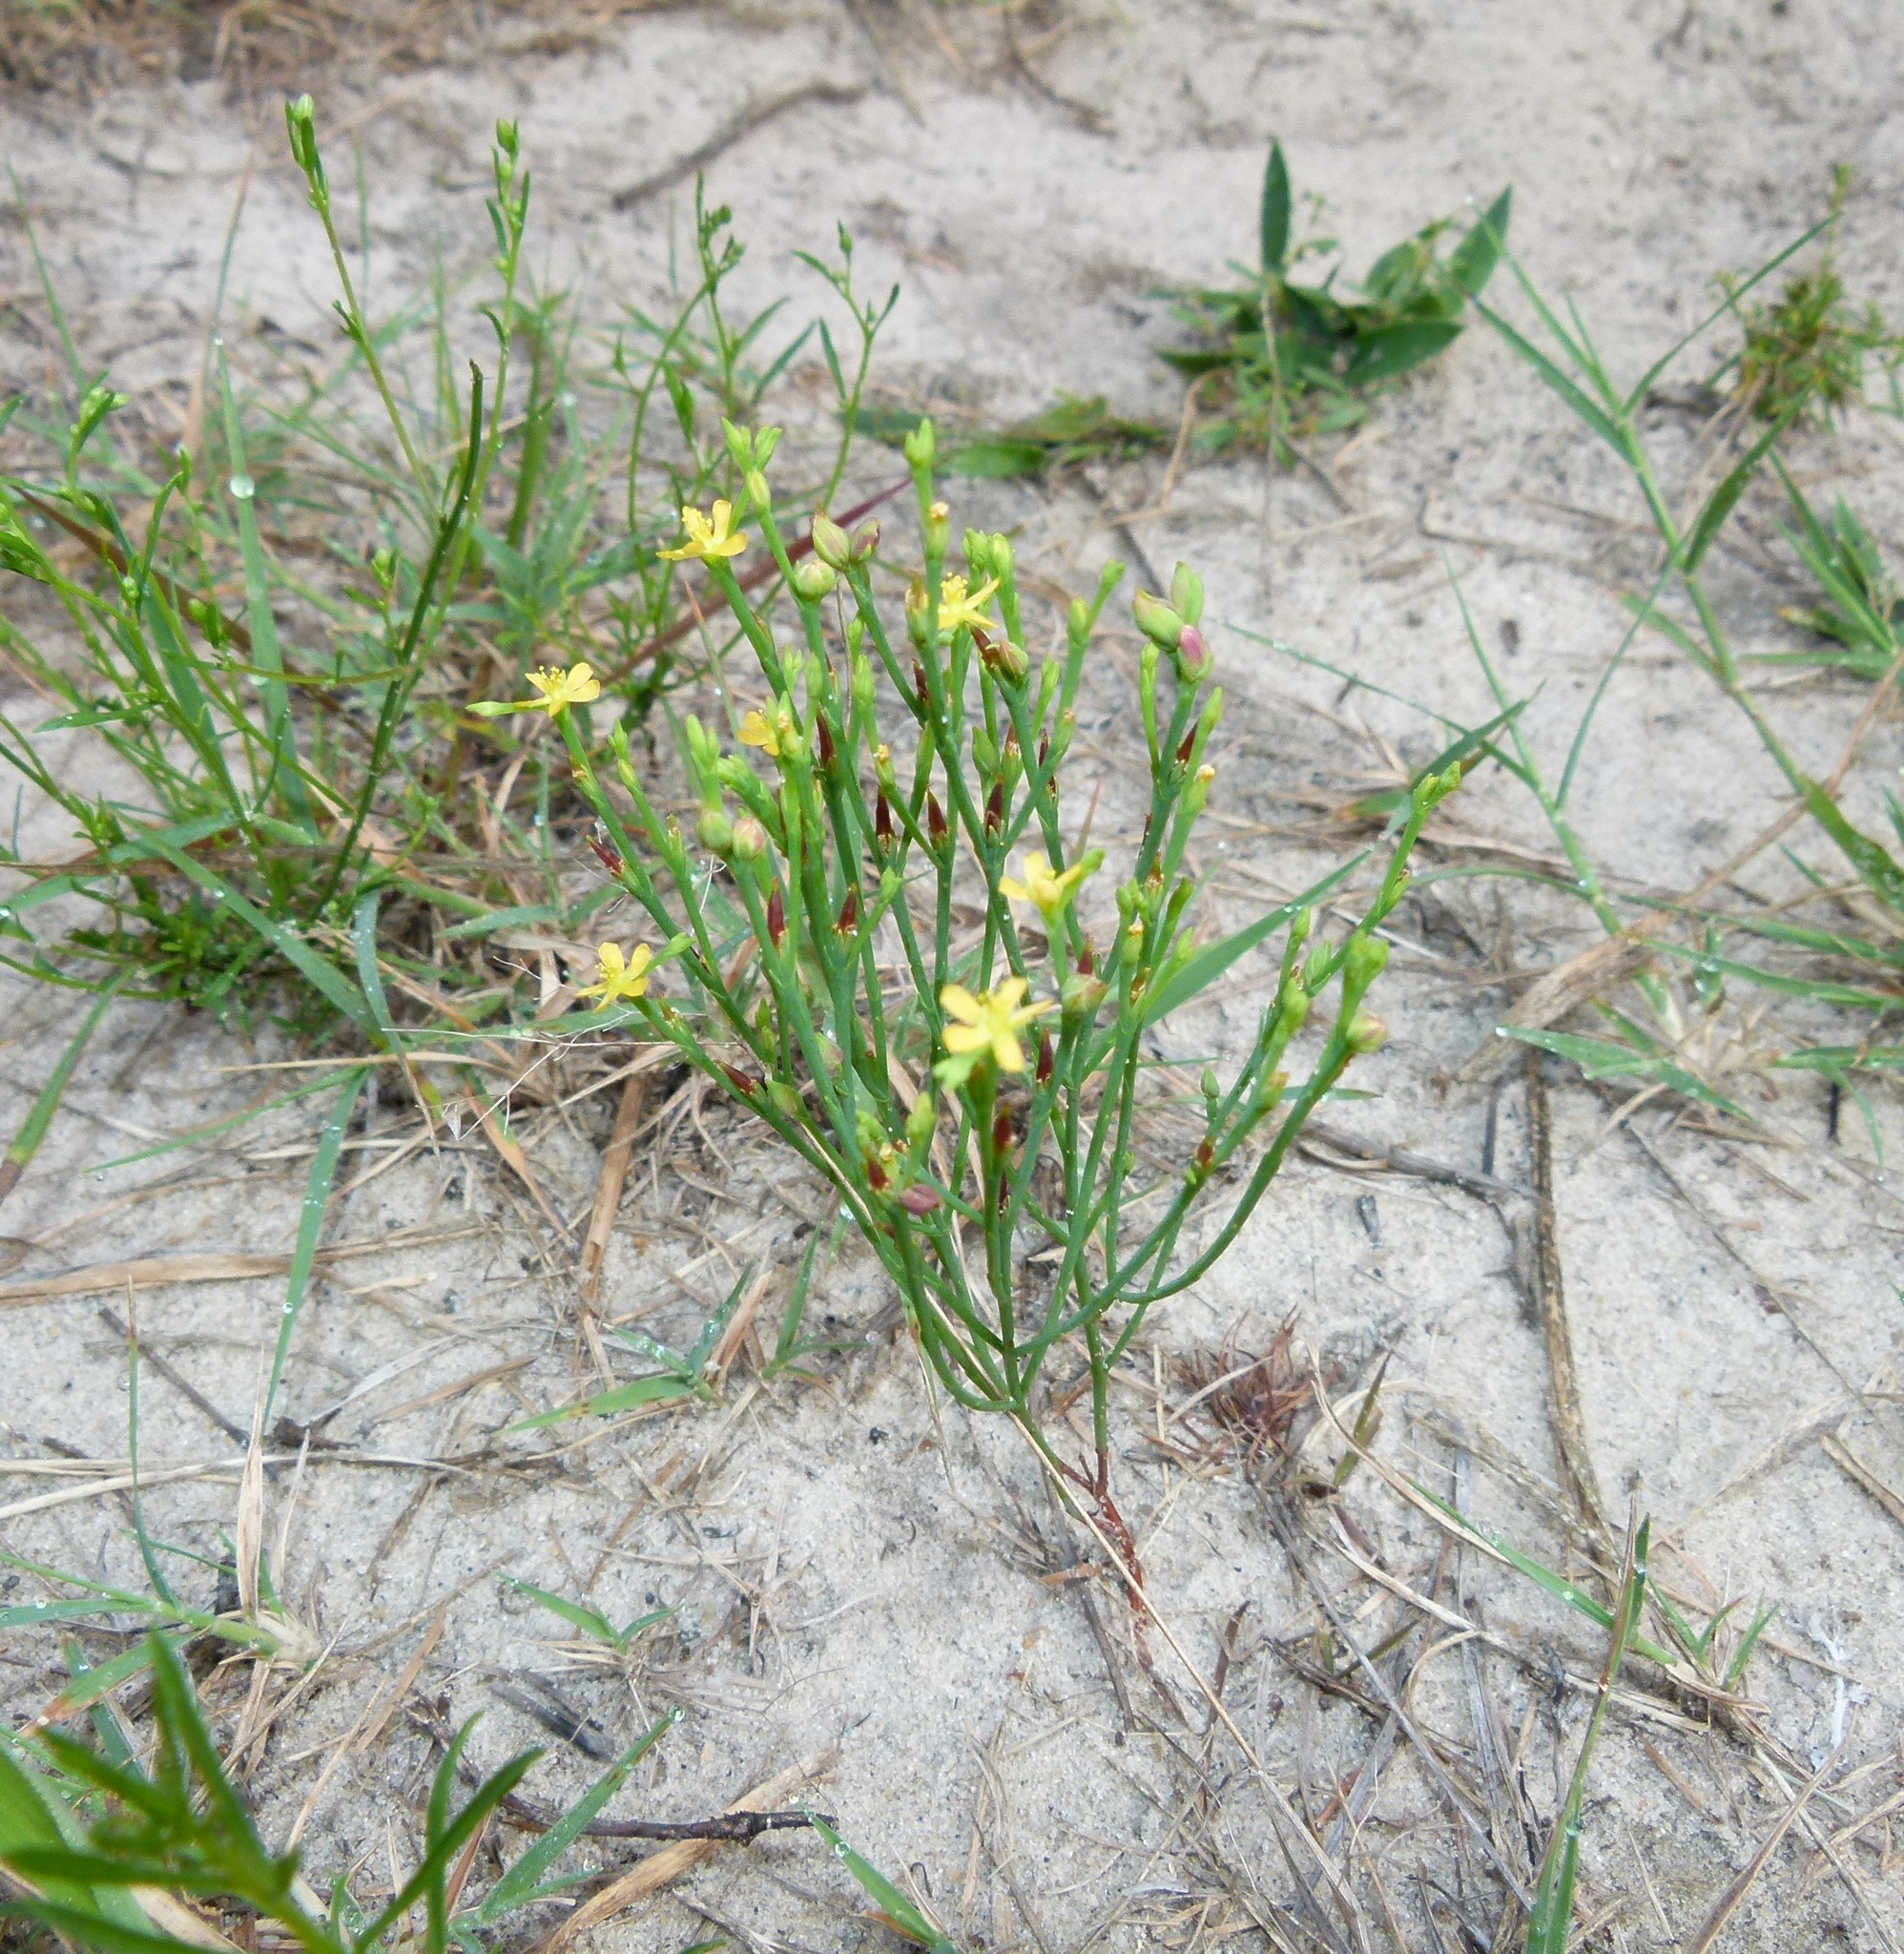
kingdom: Plantae
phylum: Tracheophyta
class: Magnoliopsida
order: Malpighiales
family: Hypericaceae
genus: Hypericum
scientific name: Hypericum gentianoides
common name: Gentian-leaved st. john's-wort
